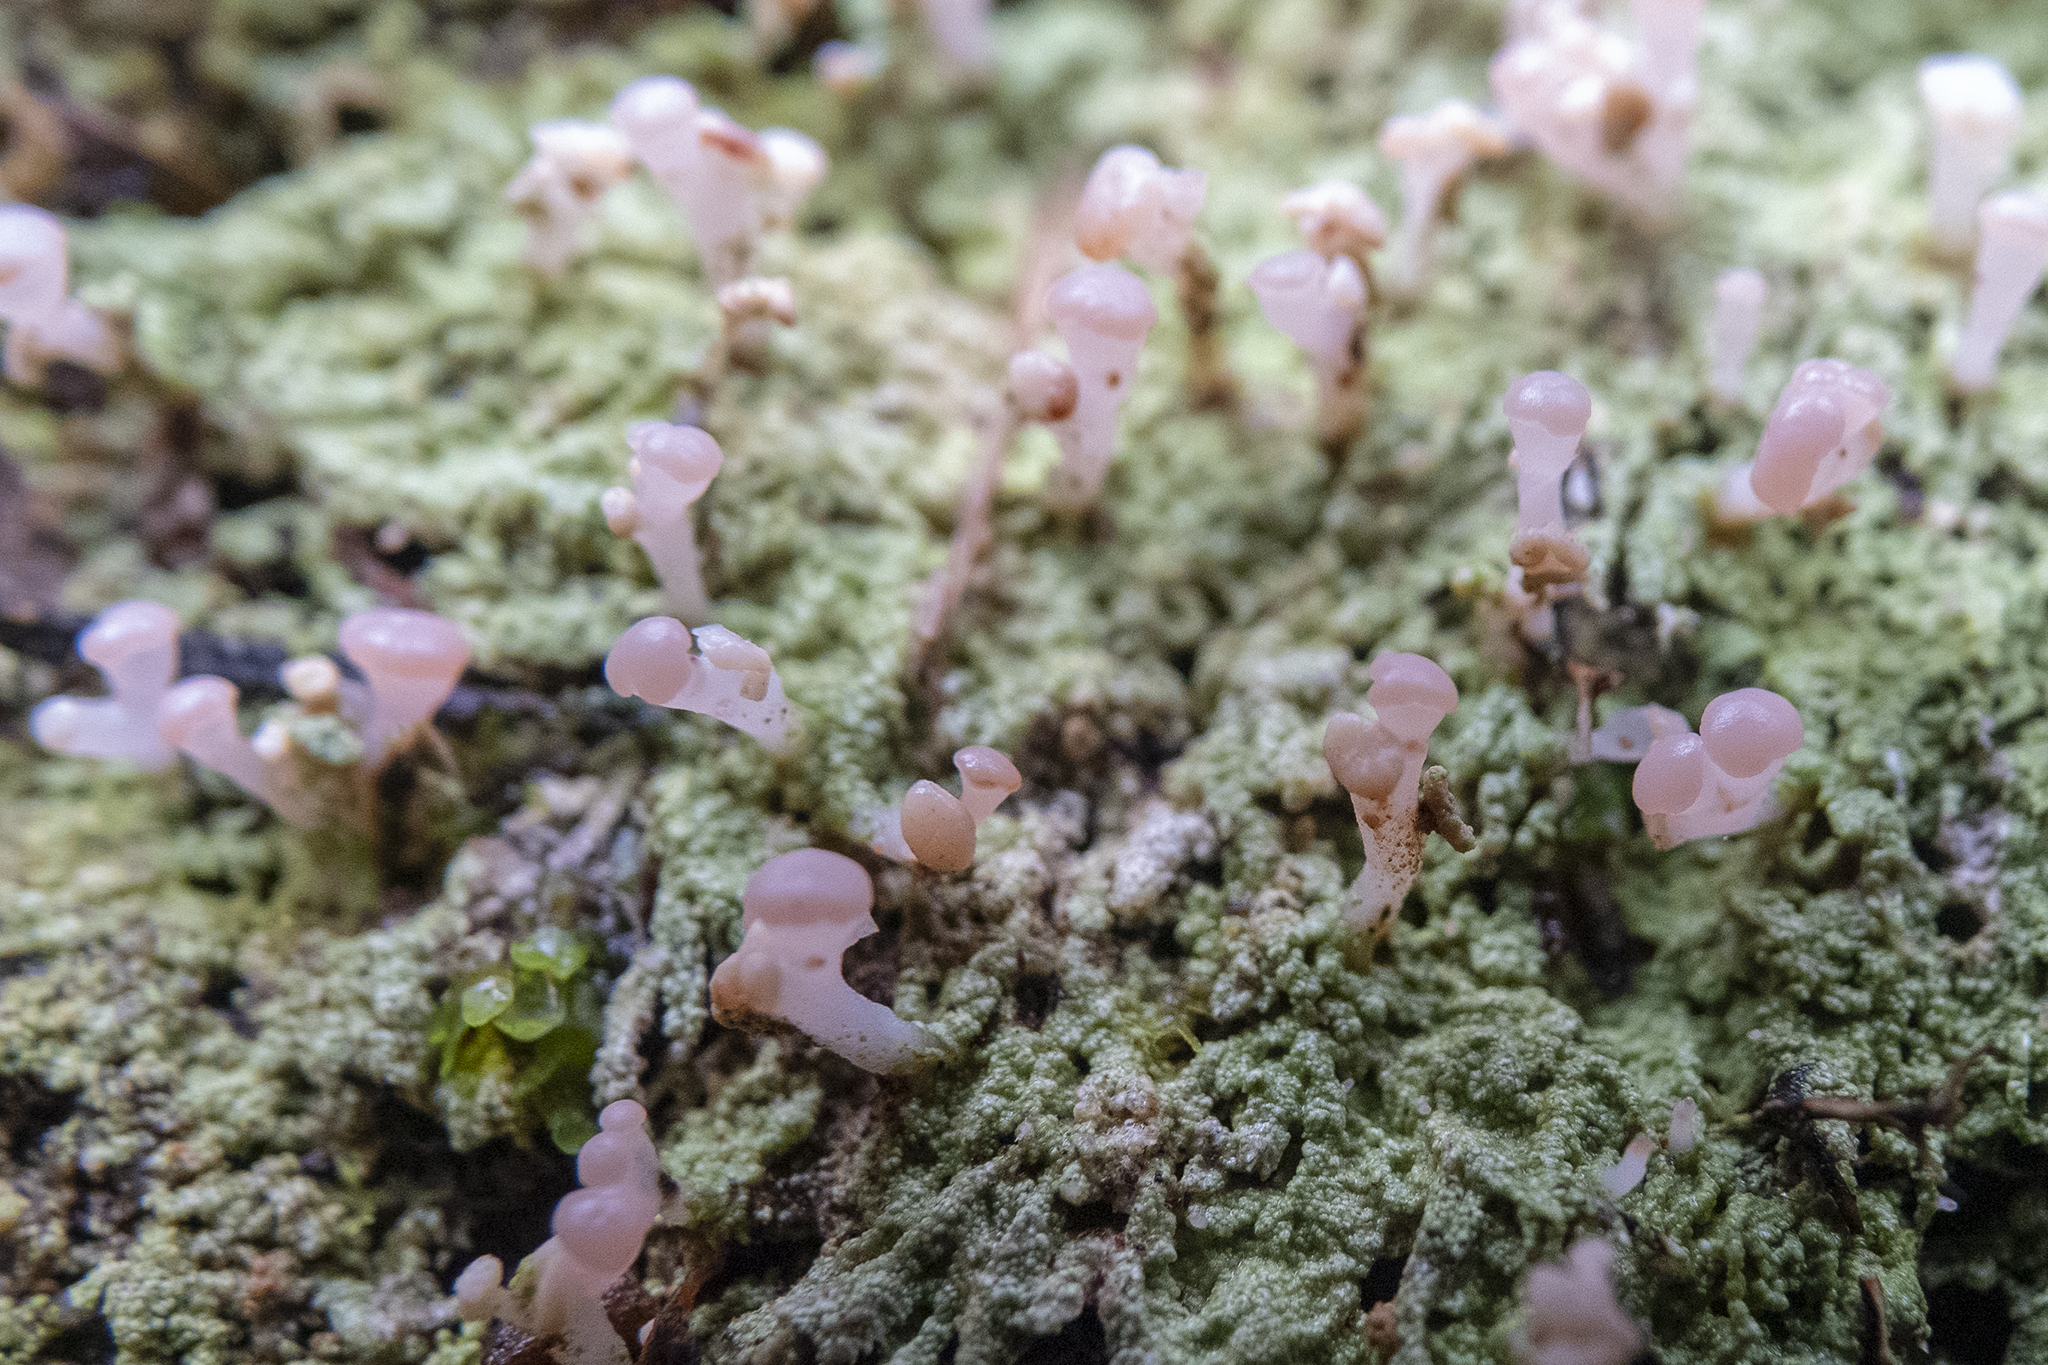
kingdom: Fungi
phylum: Ascomycota
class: Lecanoromycetes
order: Baeomycetales
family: Baeomycetaceae
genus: Baeomyces
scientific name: Baeomyces heteromorphus
